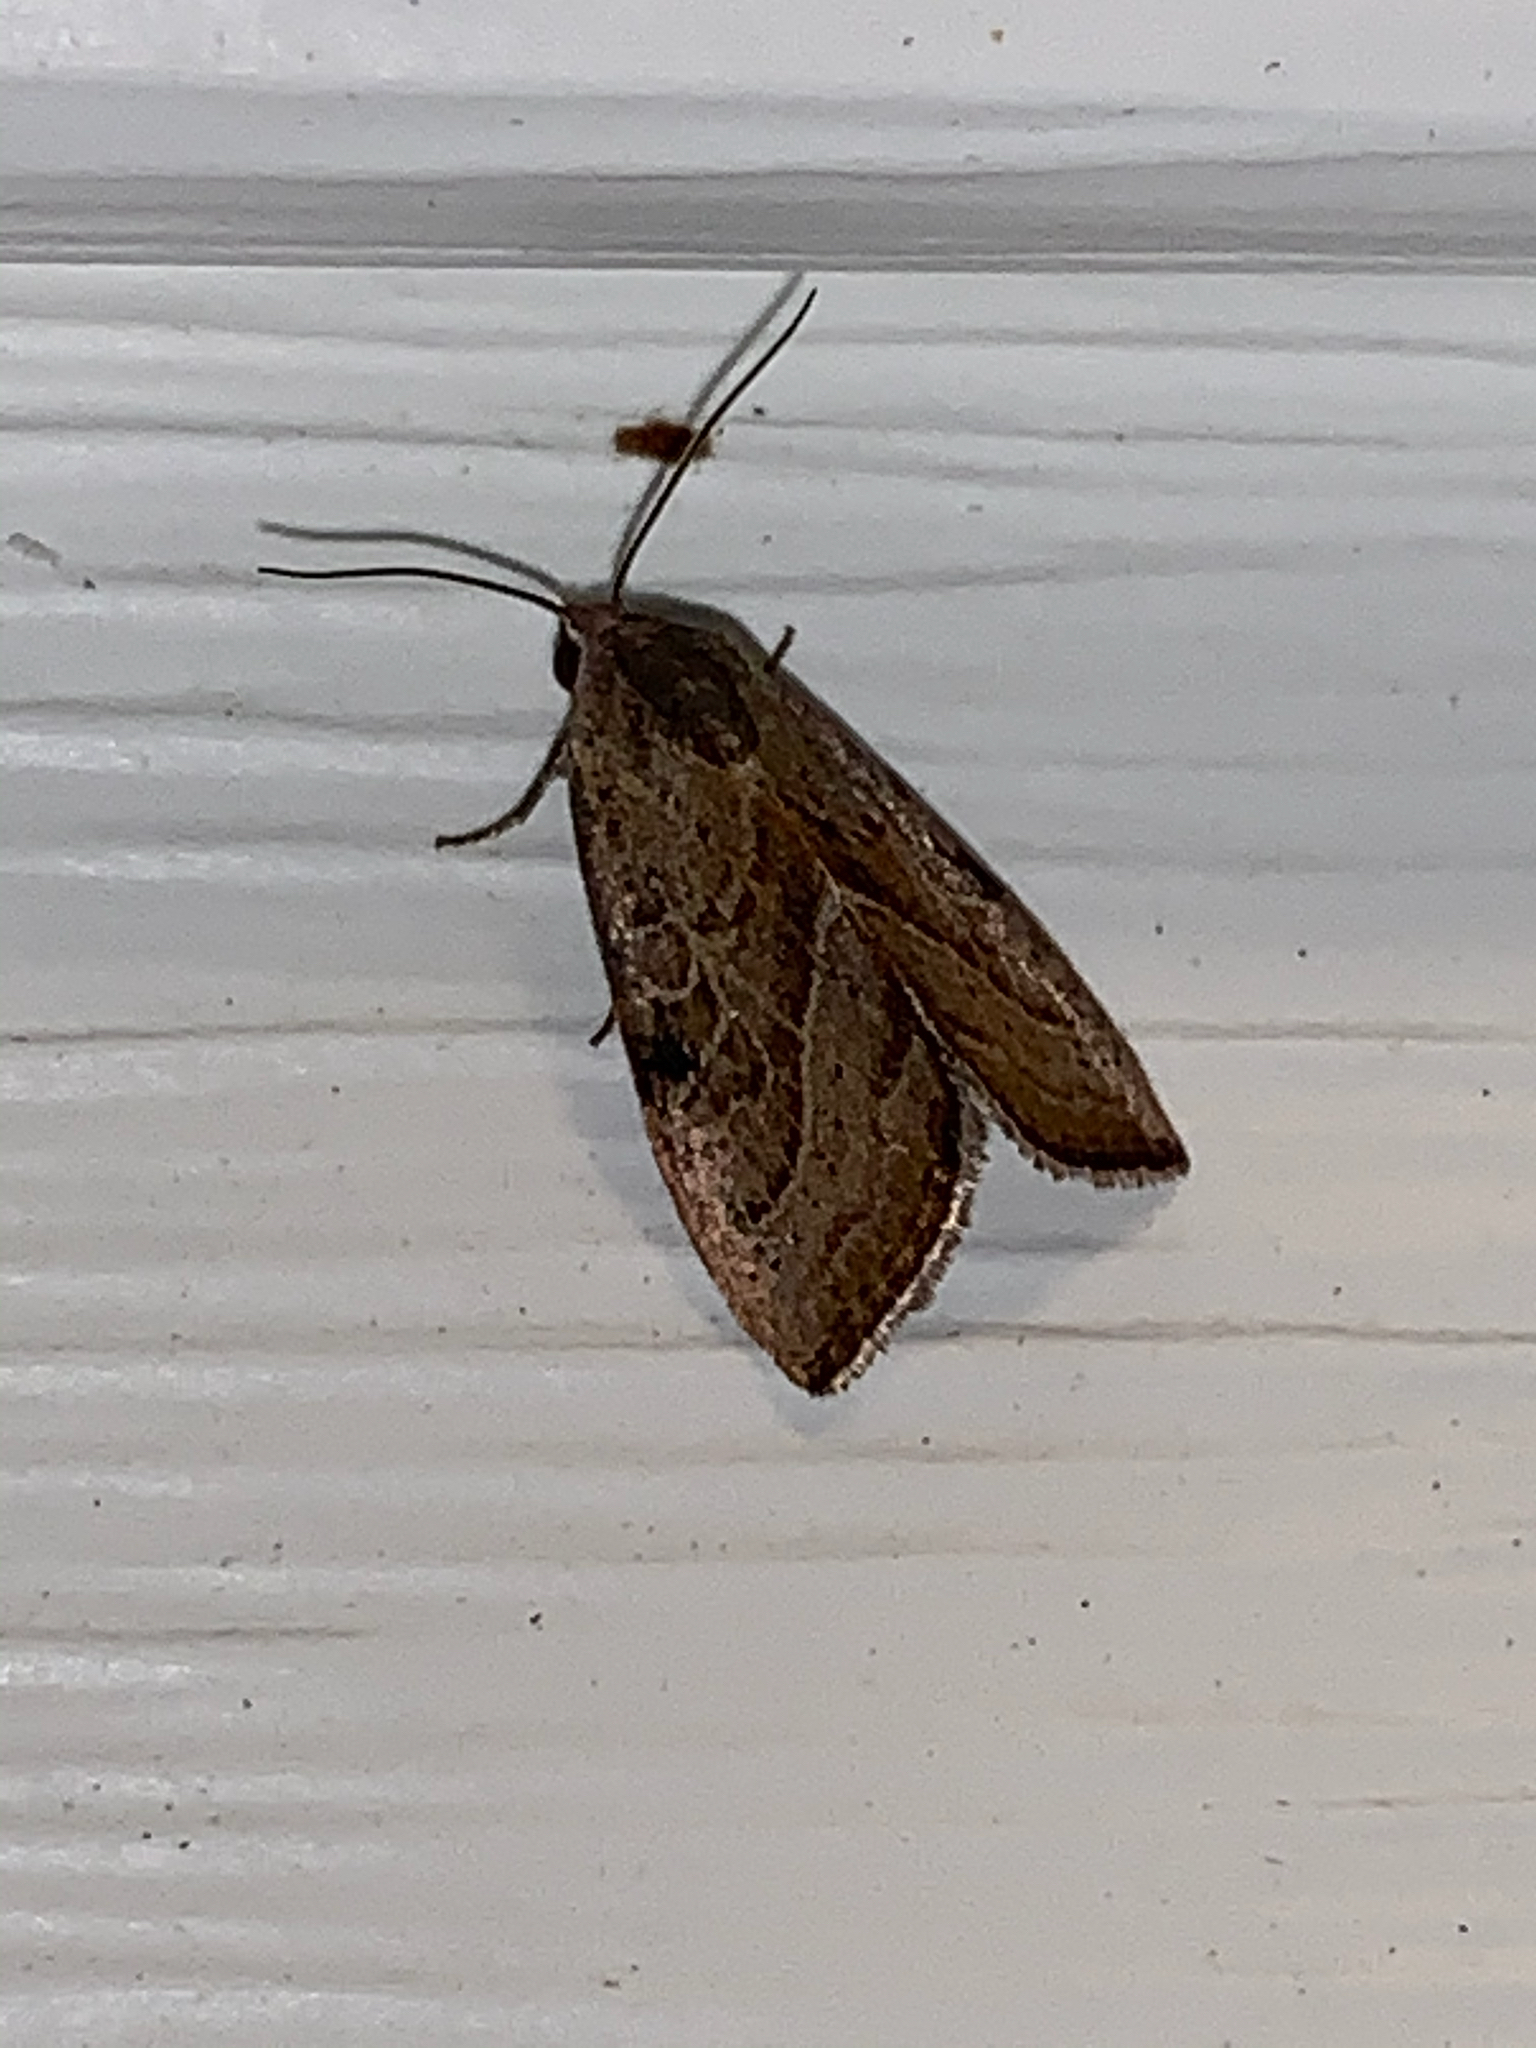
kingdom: Animalia
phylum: Arthropoda
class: Insecta
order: Lepidoptera
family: Noctuidae
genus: Galgula
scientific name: Galgula partita
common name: Wedgeling
